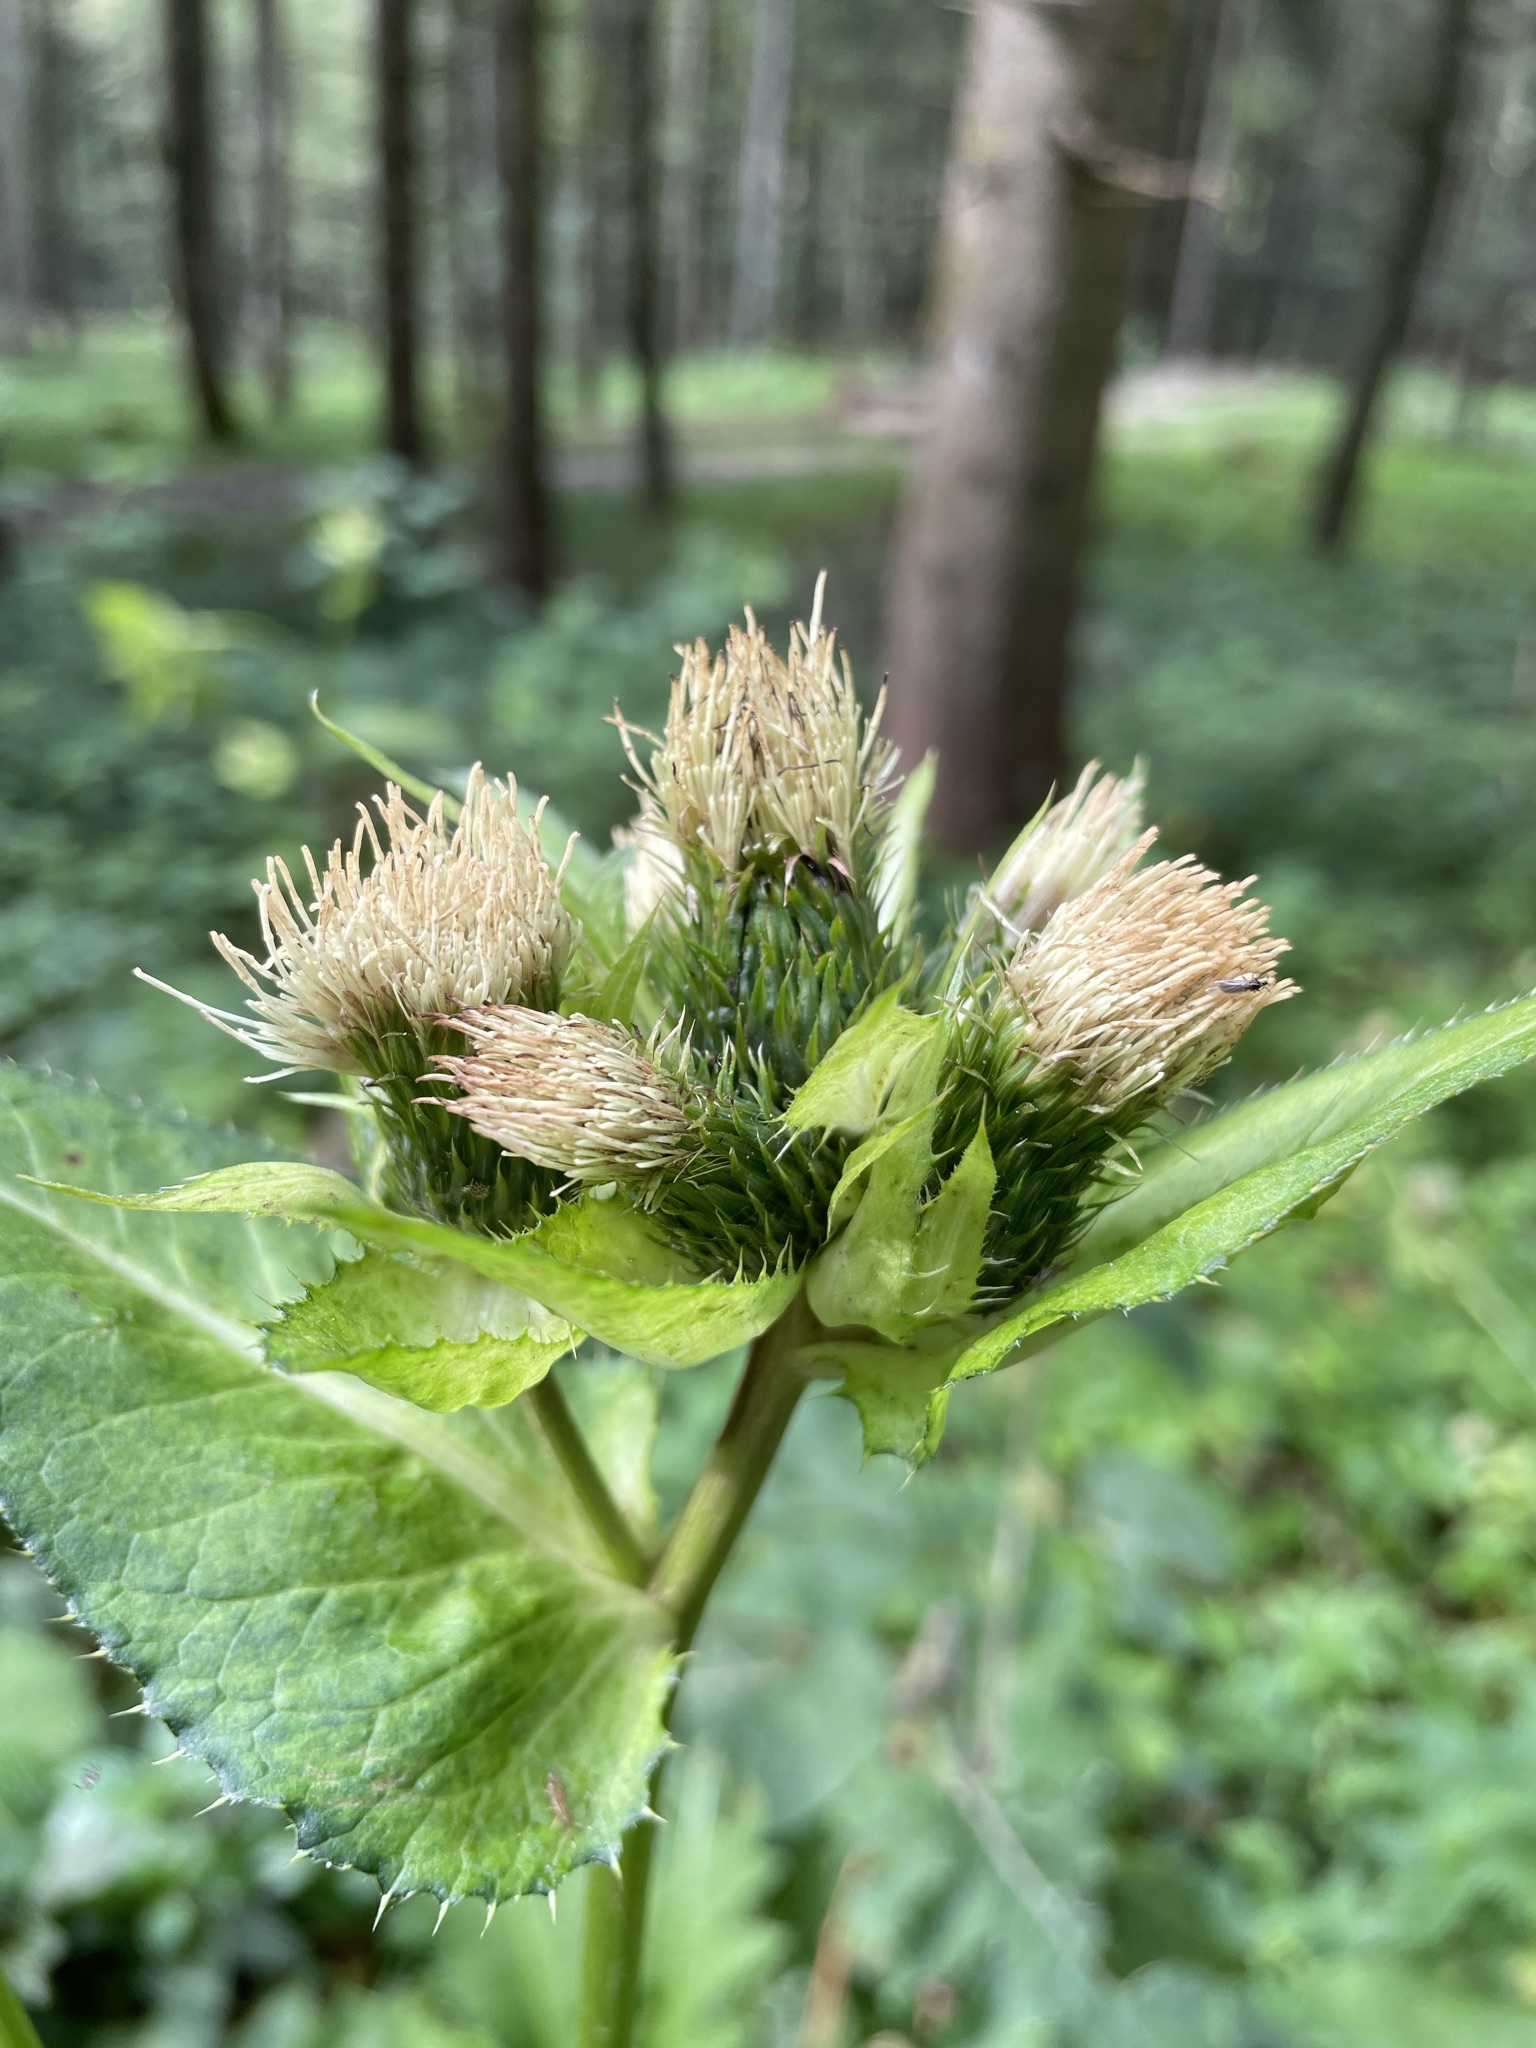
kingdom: Plantae
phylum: Tracheophyta
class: Magnoliopsida
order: Asterales
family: Asteraceae
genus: Cirsium
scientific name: Cirsium oleraceum
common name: Cabbage thistle
